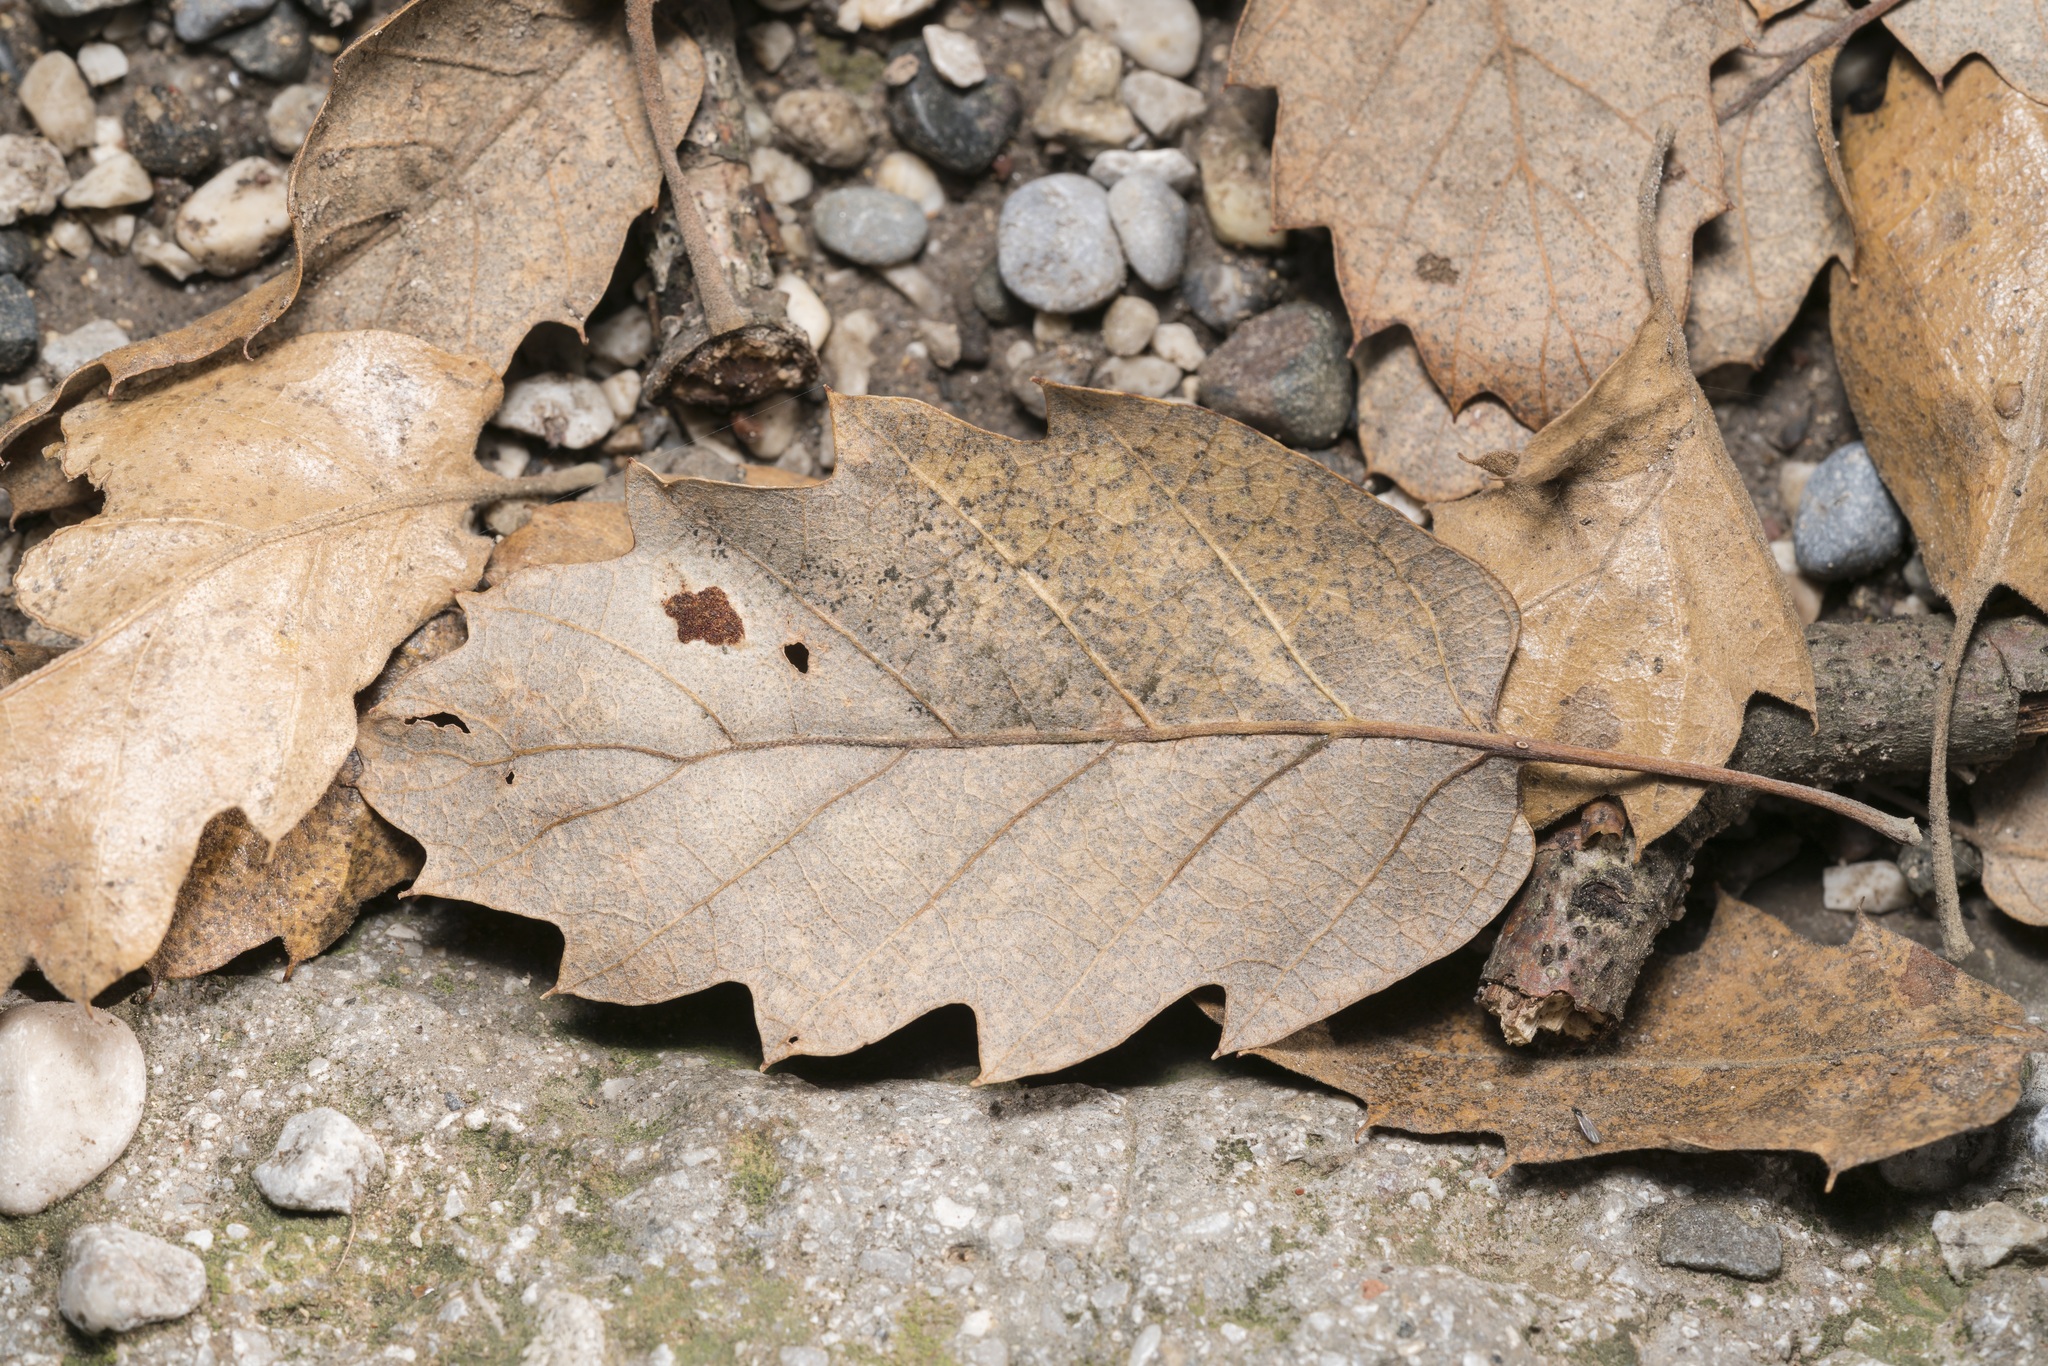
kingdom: Plantae
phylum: Tracheophyta
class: Magnoliopsida
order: Fagales
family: Fagaceae
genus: Quercus
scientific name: Quercus ithaburensis
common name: Tabor oak
